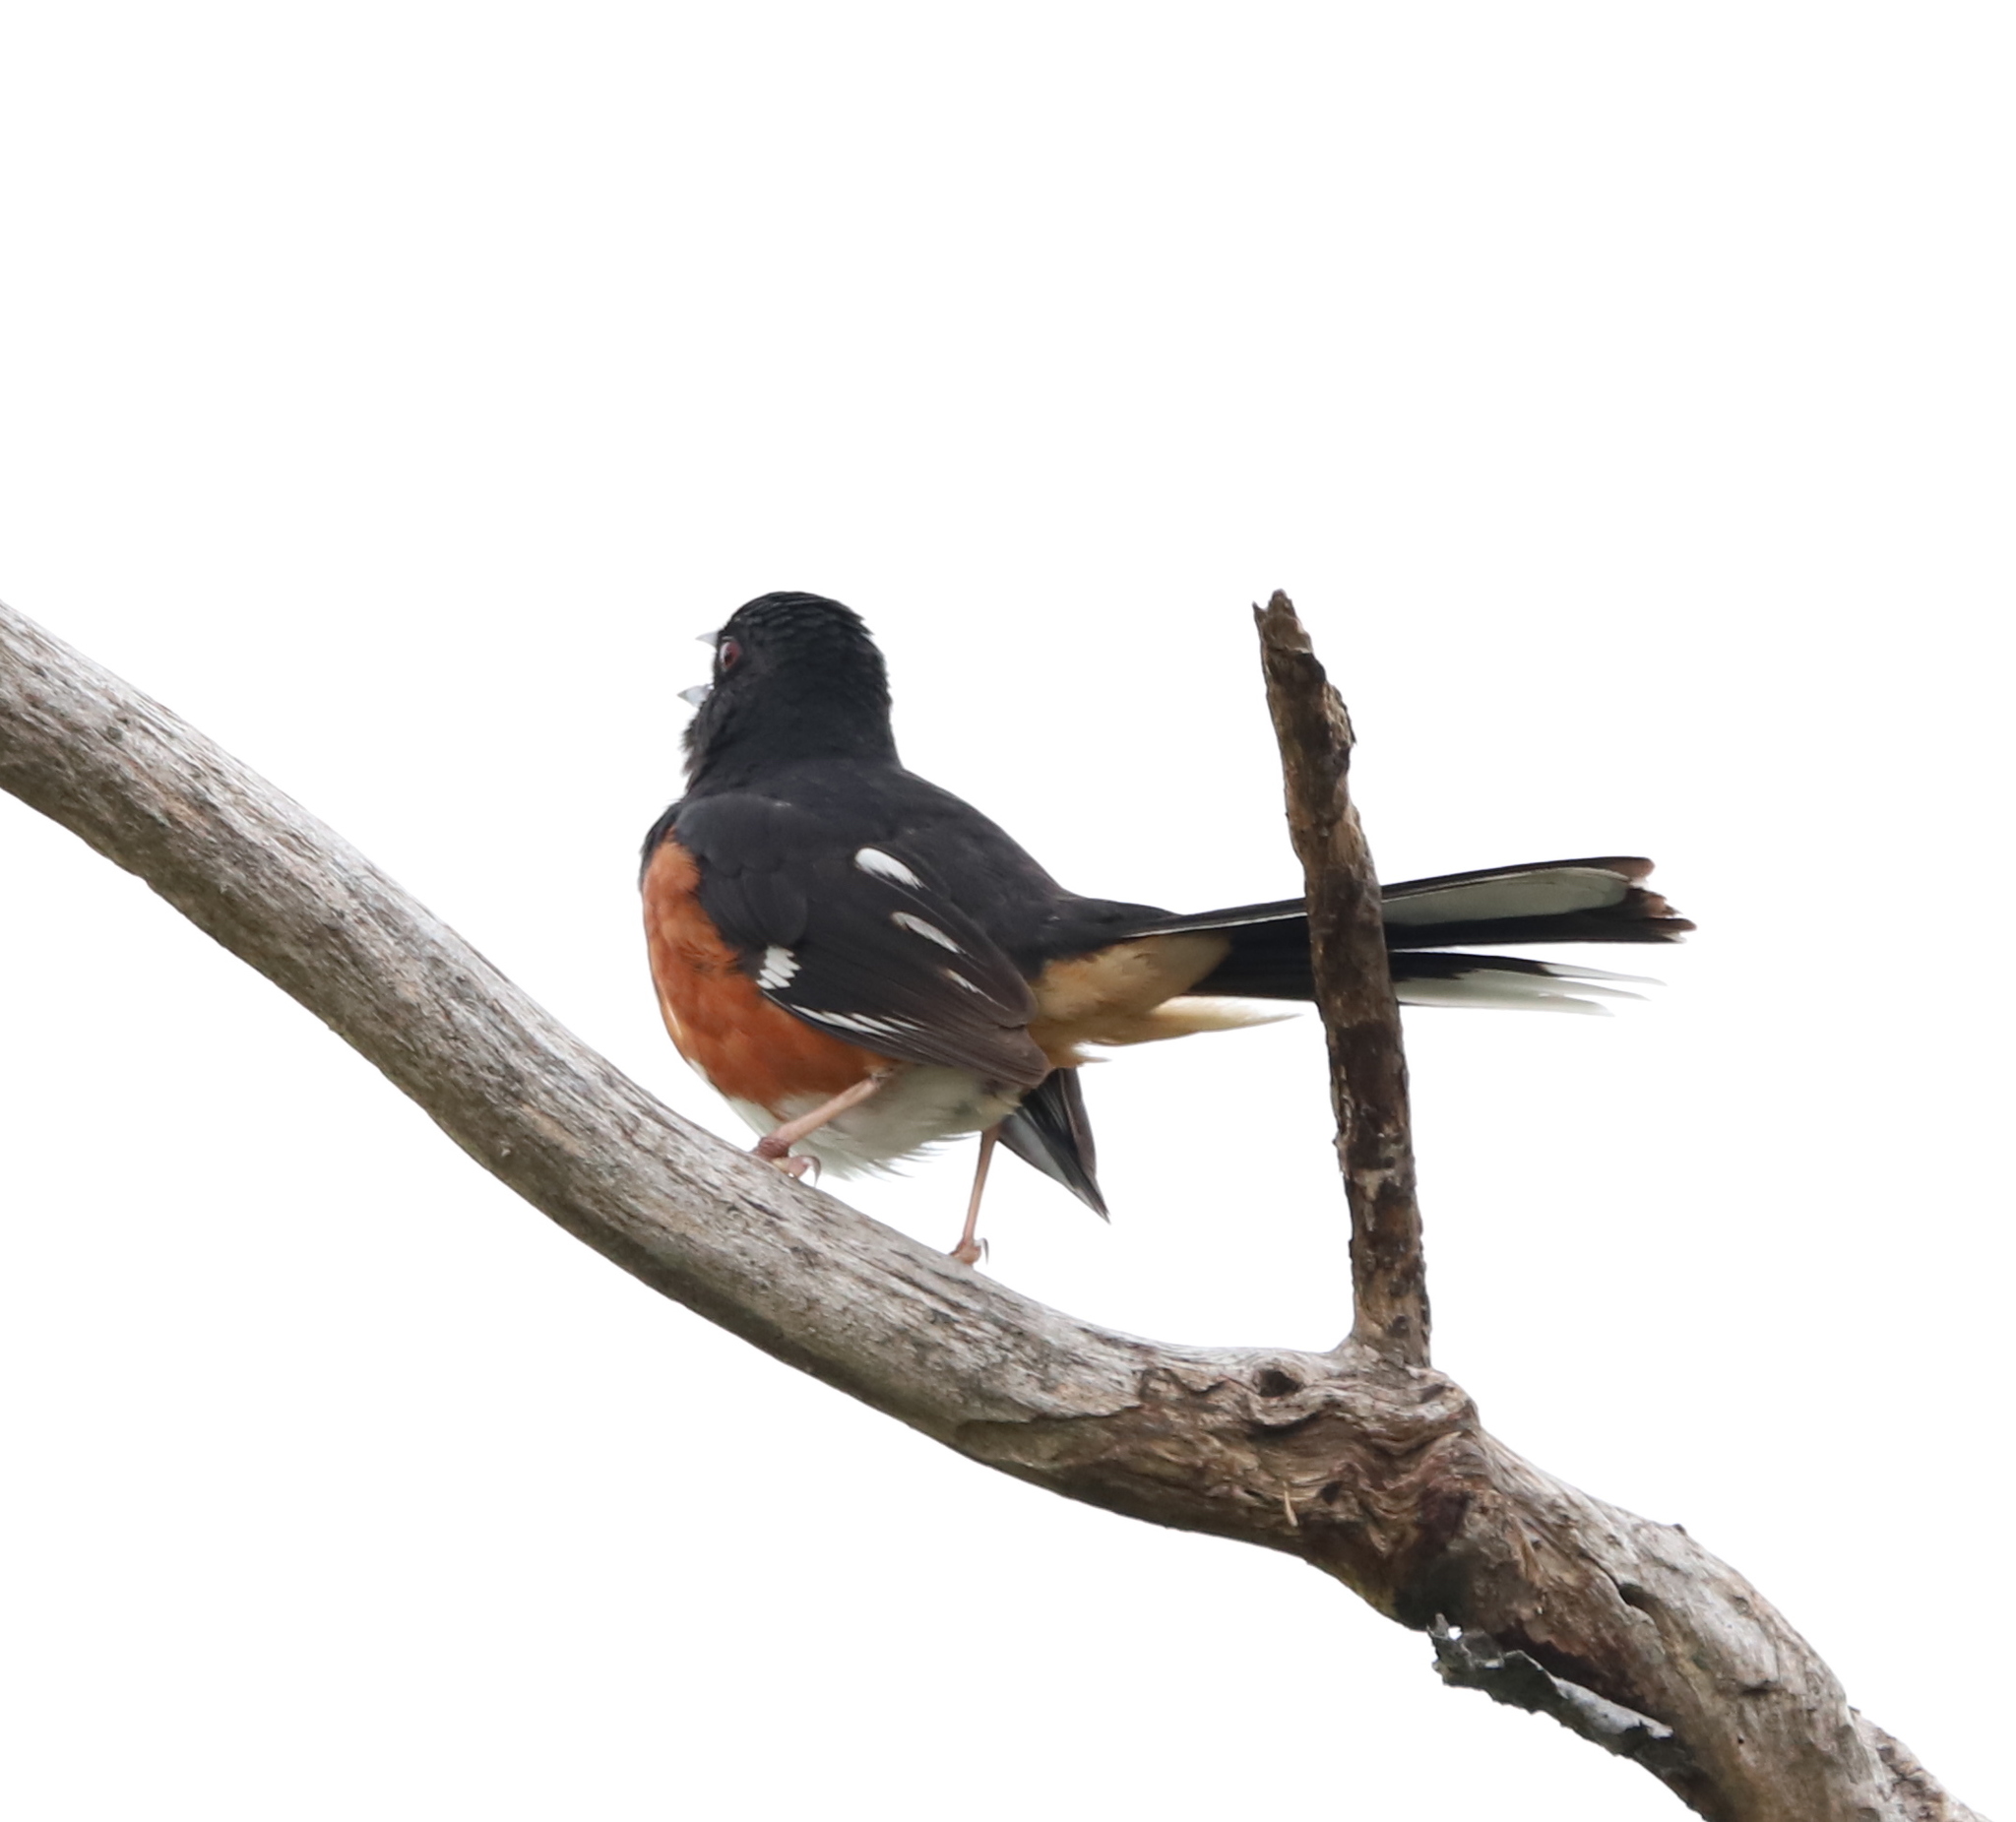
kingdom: Animalia
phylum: Chordata
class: Aves
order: Passeriformes
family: Passerellidae
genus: Pipilo
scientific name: Pipilo erythrophthalmus
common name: Eastern towhee
